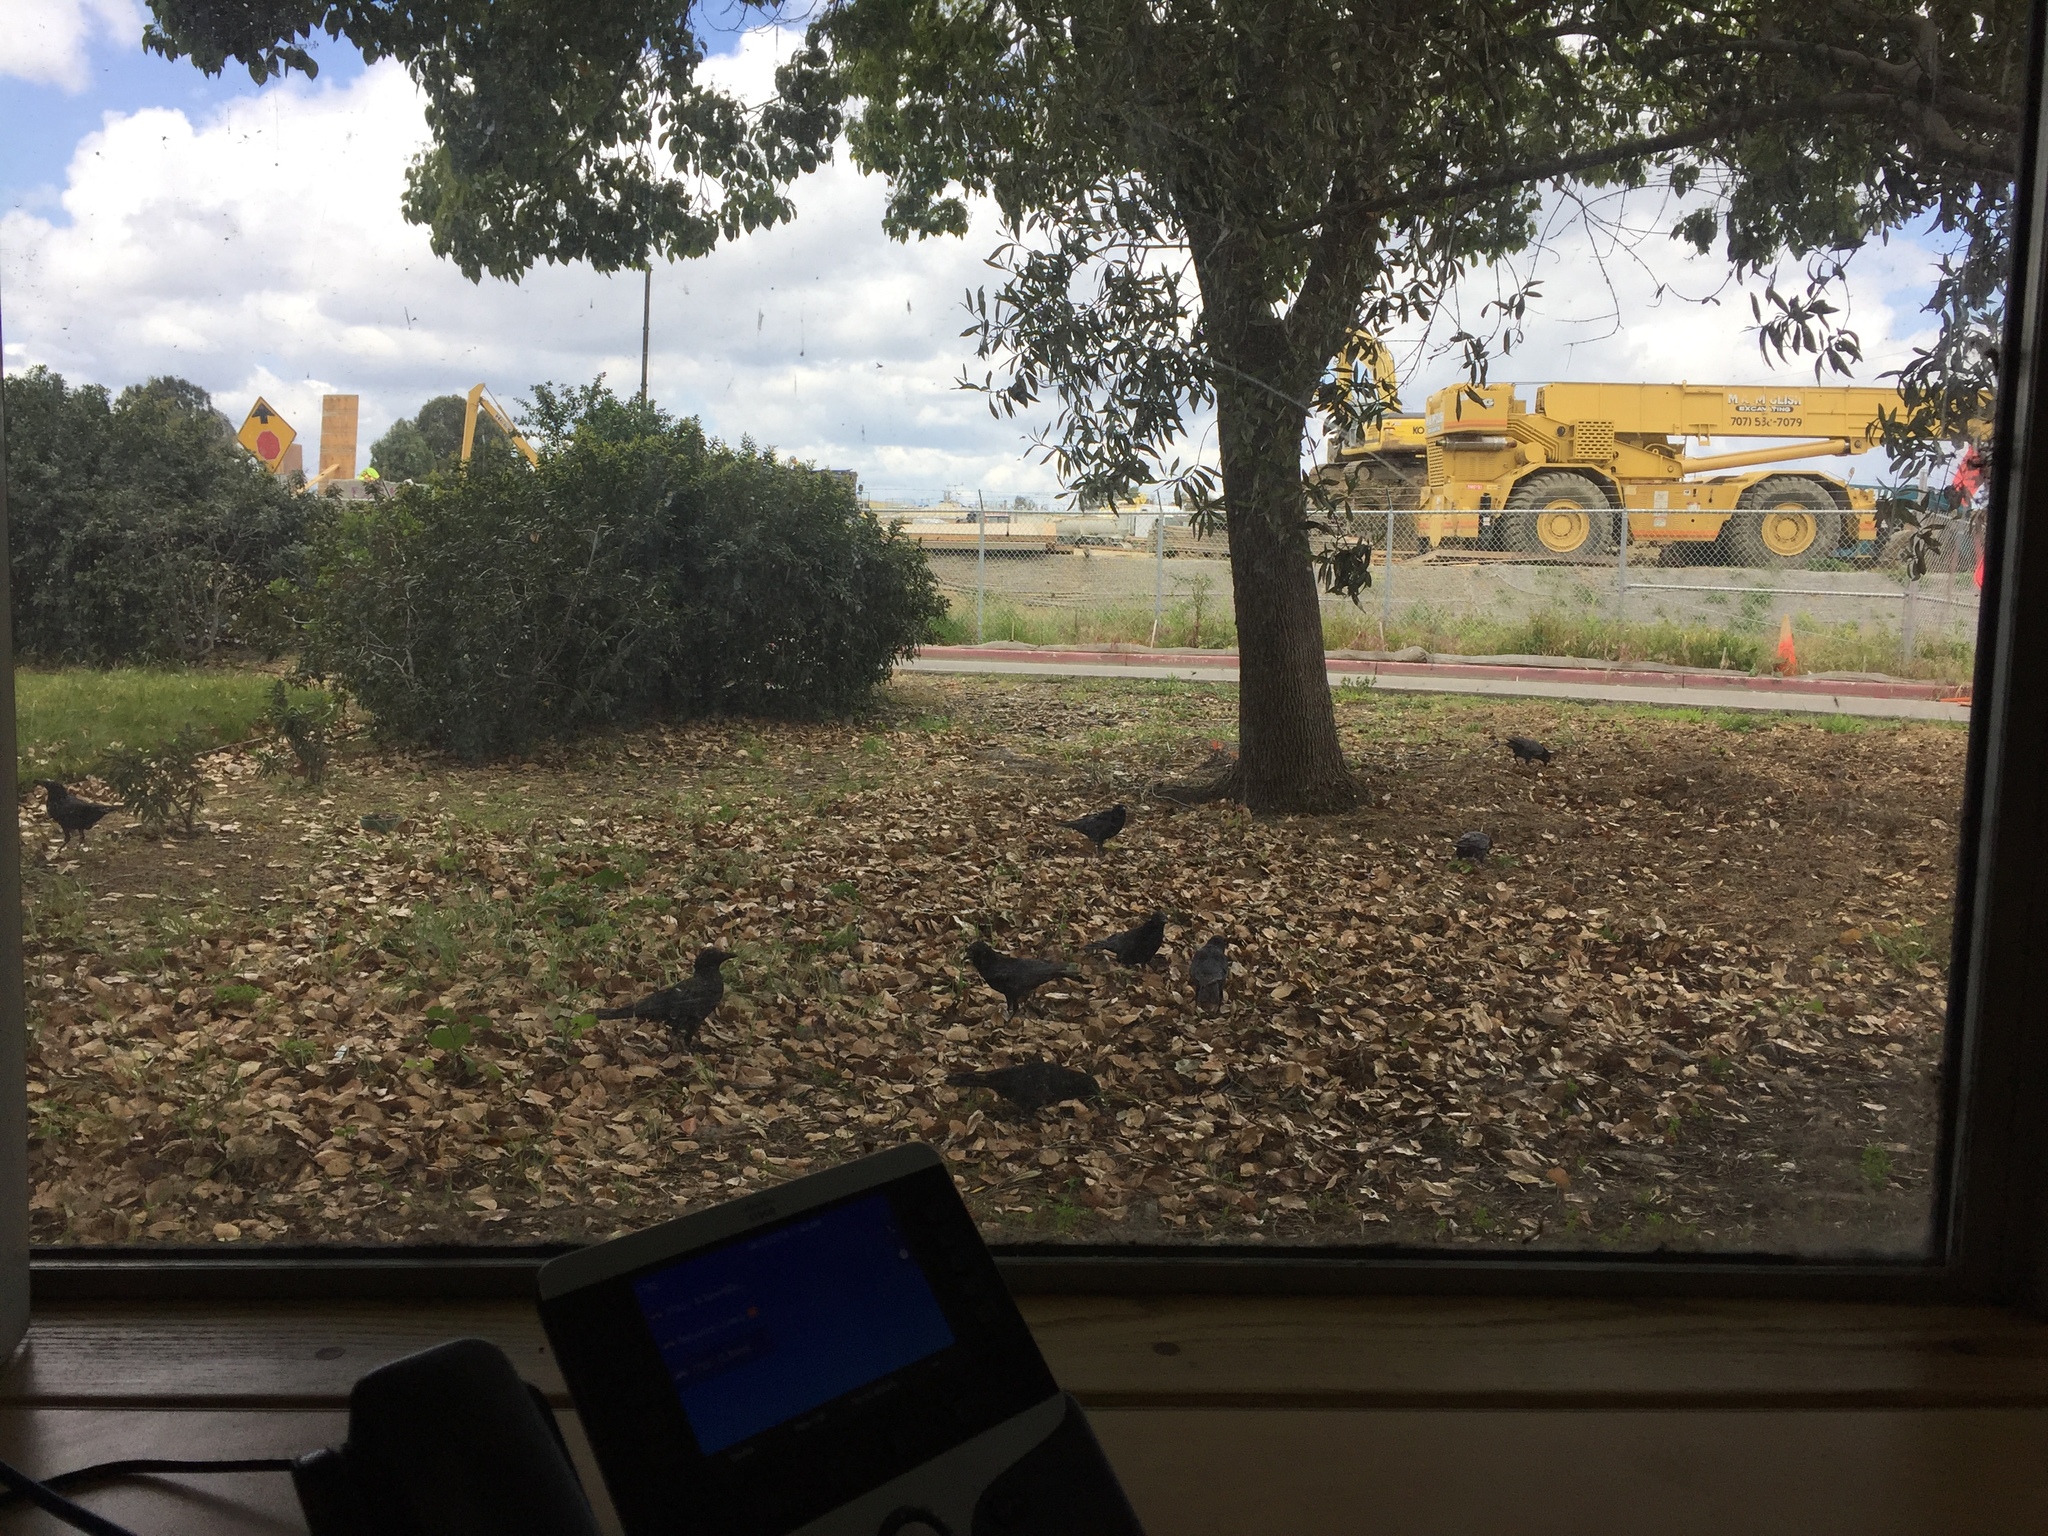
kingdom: Animalia
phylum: Chordata
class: Aves
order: Passeriformes
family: Corvidae
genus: Corvus
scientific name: Corvus brachyrhynchos
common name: American crow
